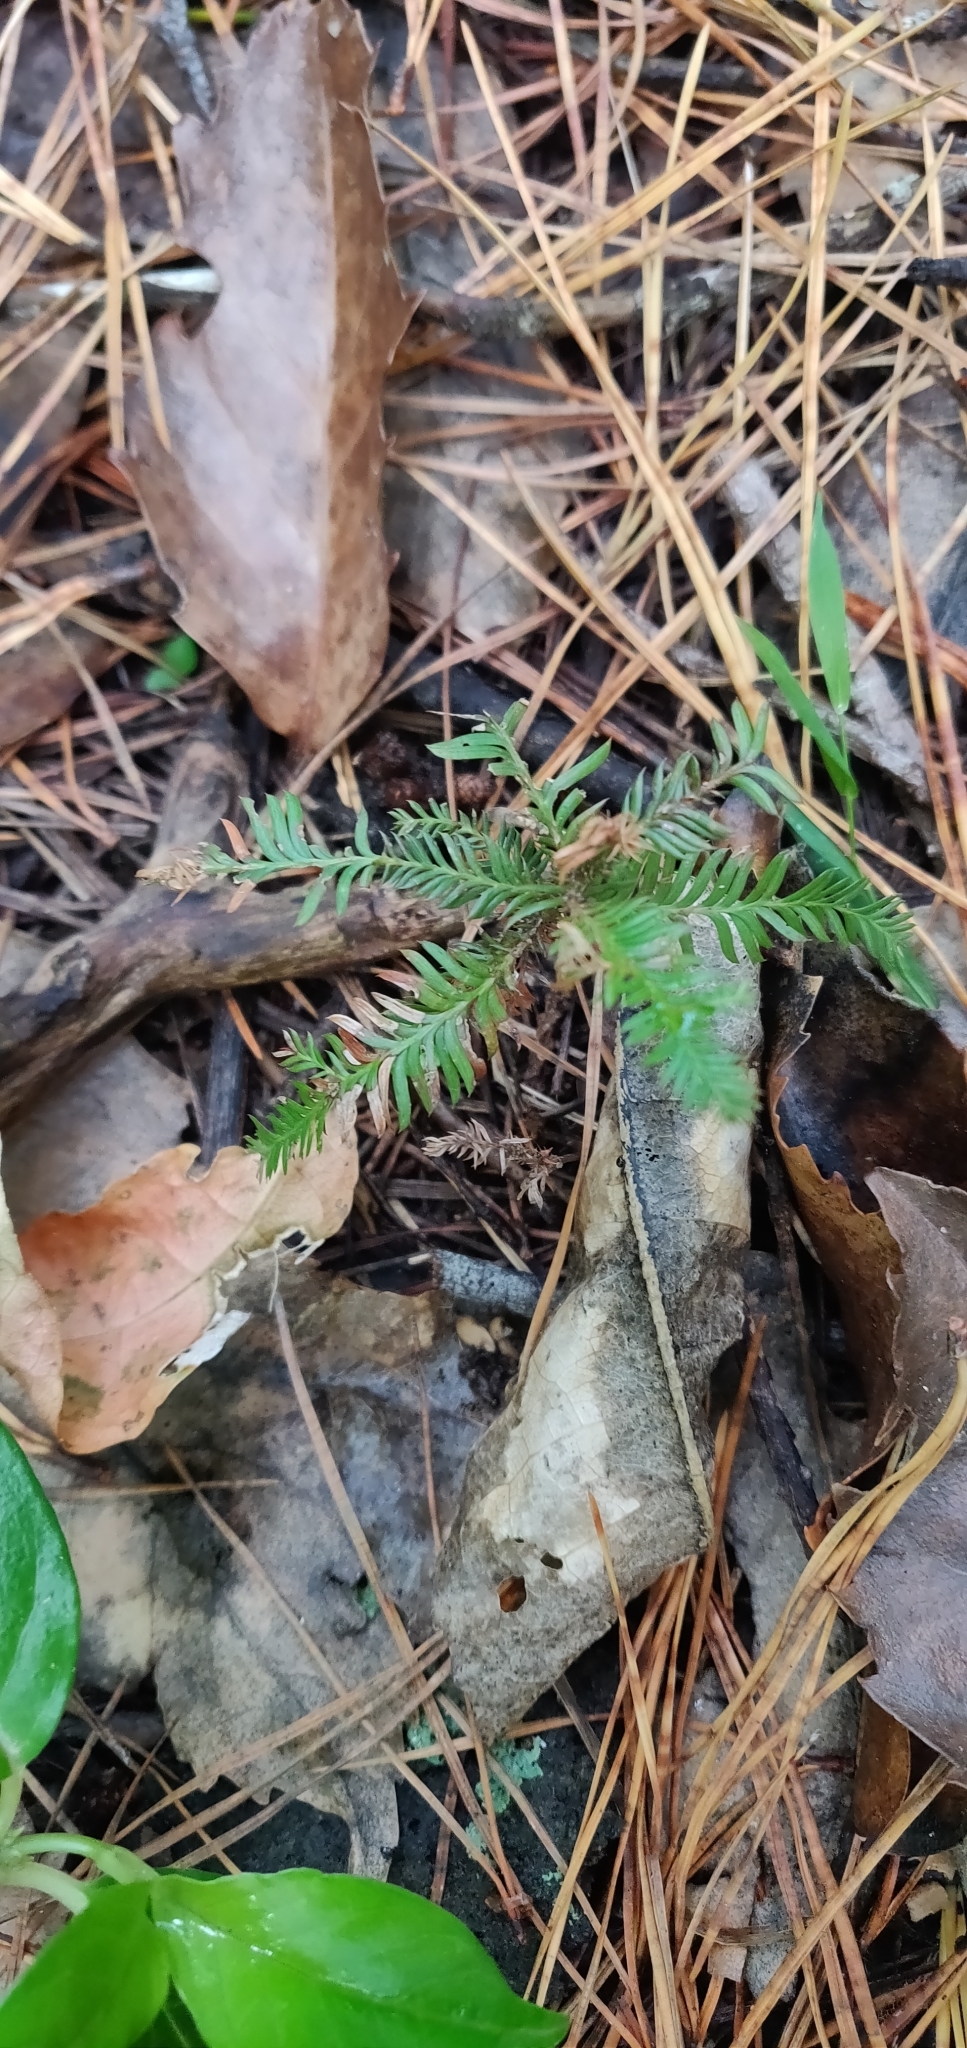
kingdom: Plantae
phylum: Tracheophyta
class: Pinopsida
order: Pinales
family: Podocarpaceae
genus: Dacrycarpus
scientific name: Dacrycarpus dacrydioides
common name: White pine
